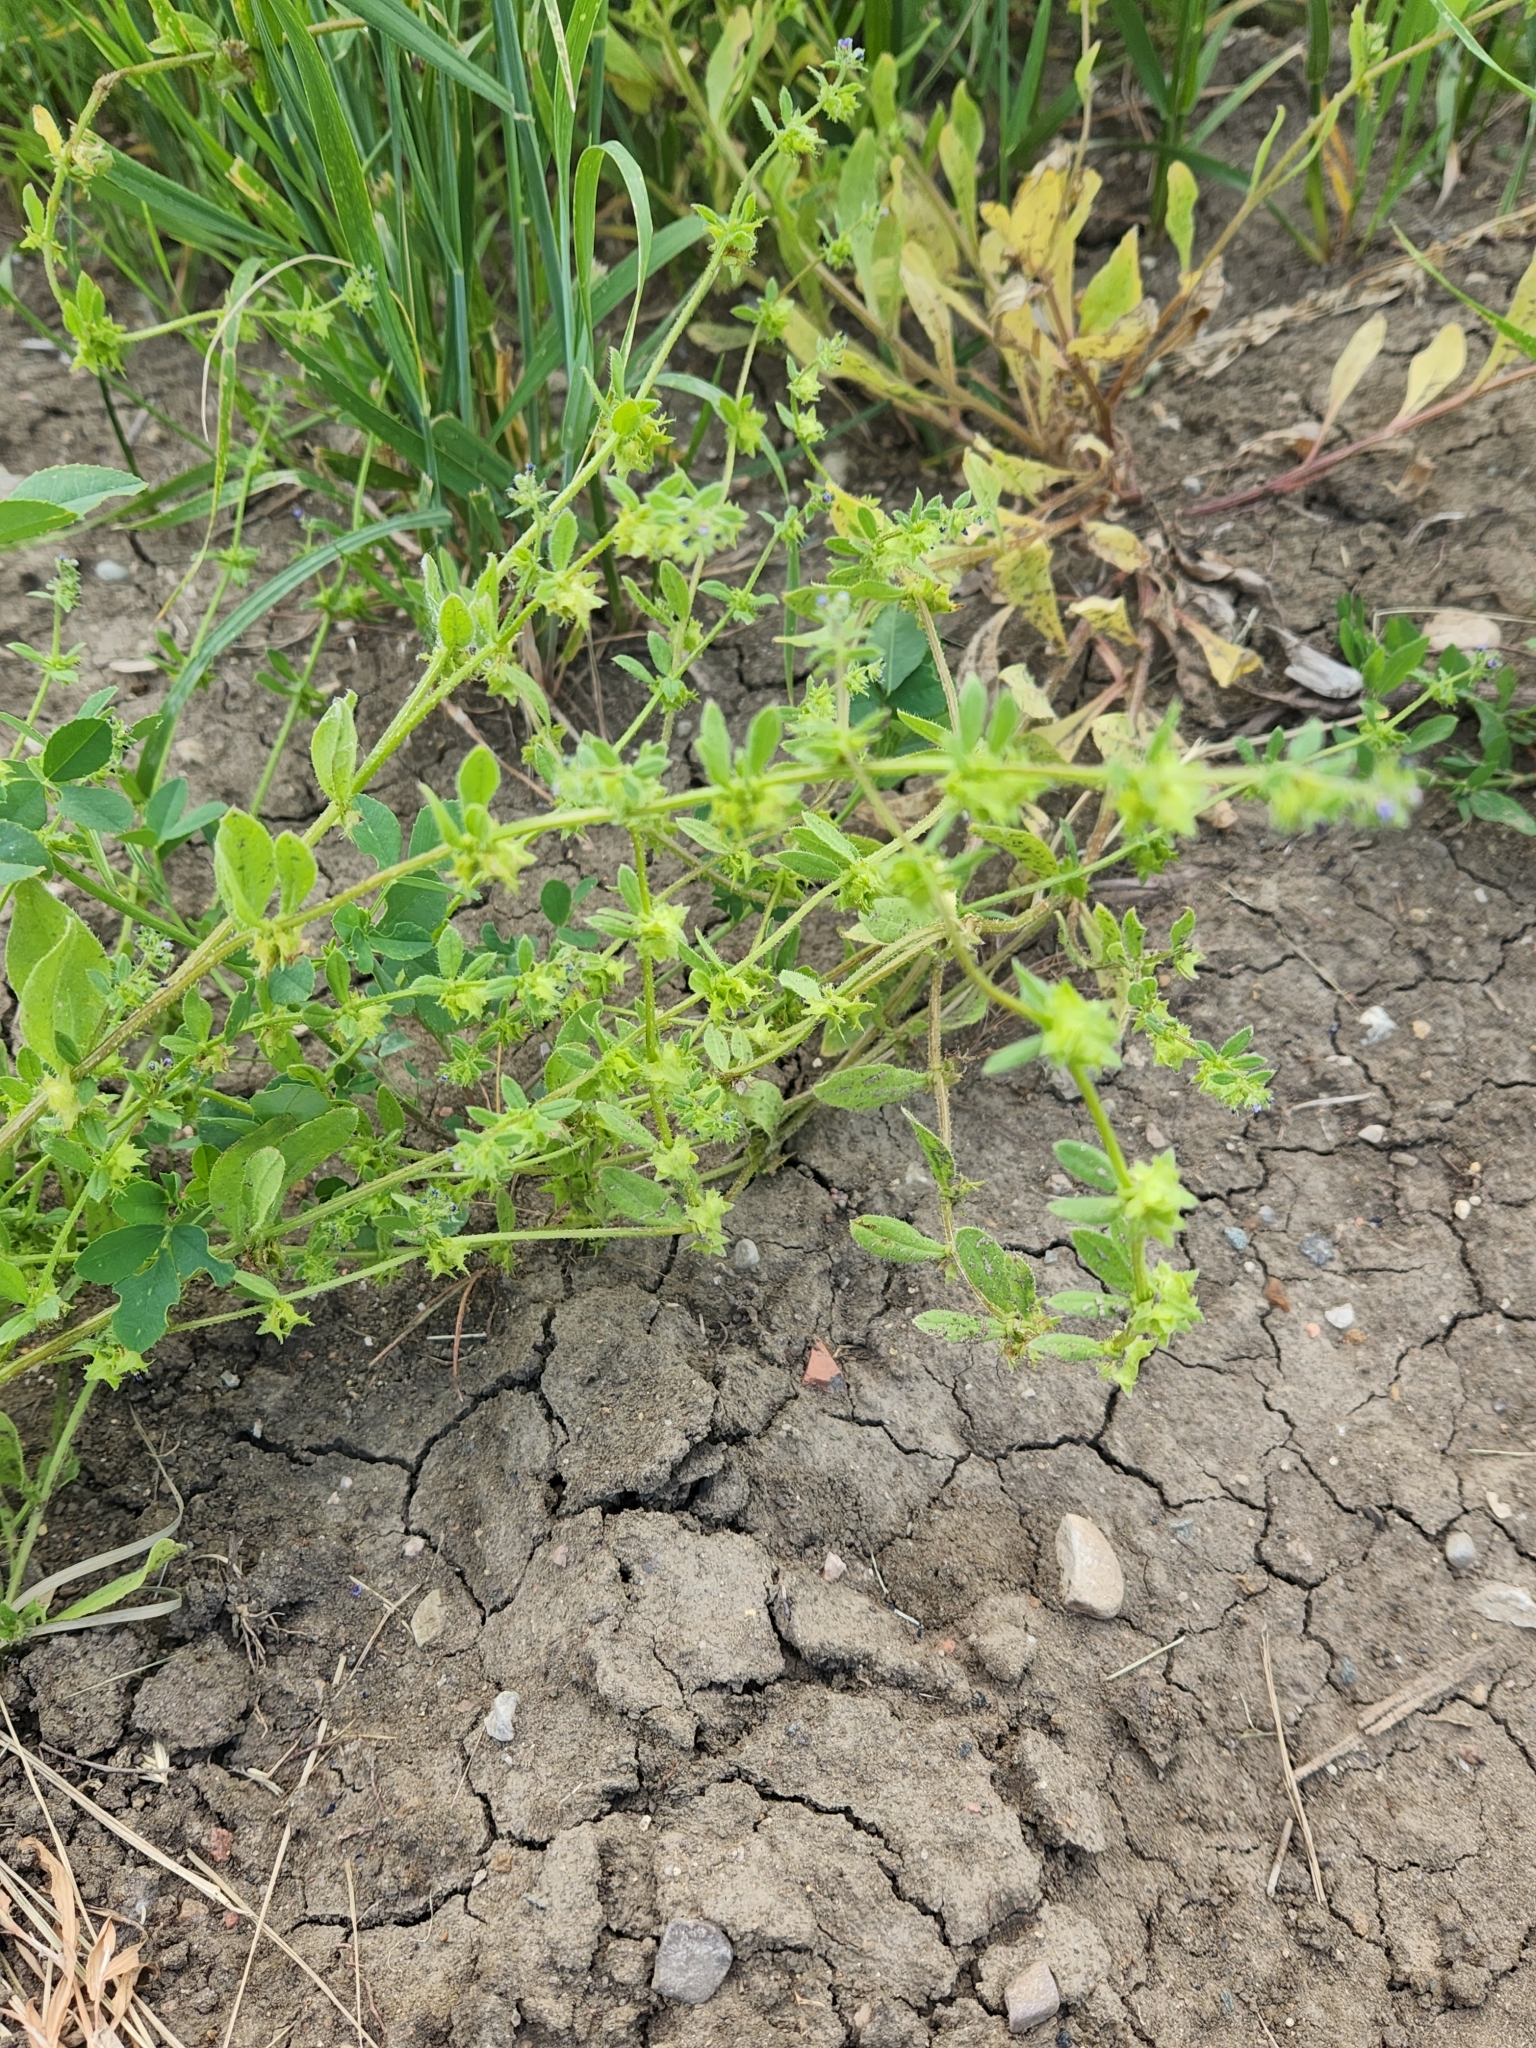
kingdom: Plantae
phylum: Tracheophyta
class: Magnoliopsida
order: Boraginales
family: Boraginaceae
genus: Asperugo
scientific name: Asperugo procumbens
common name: Madwort
